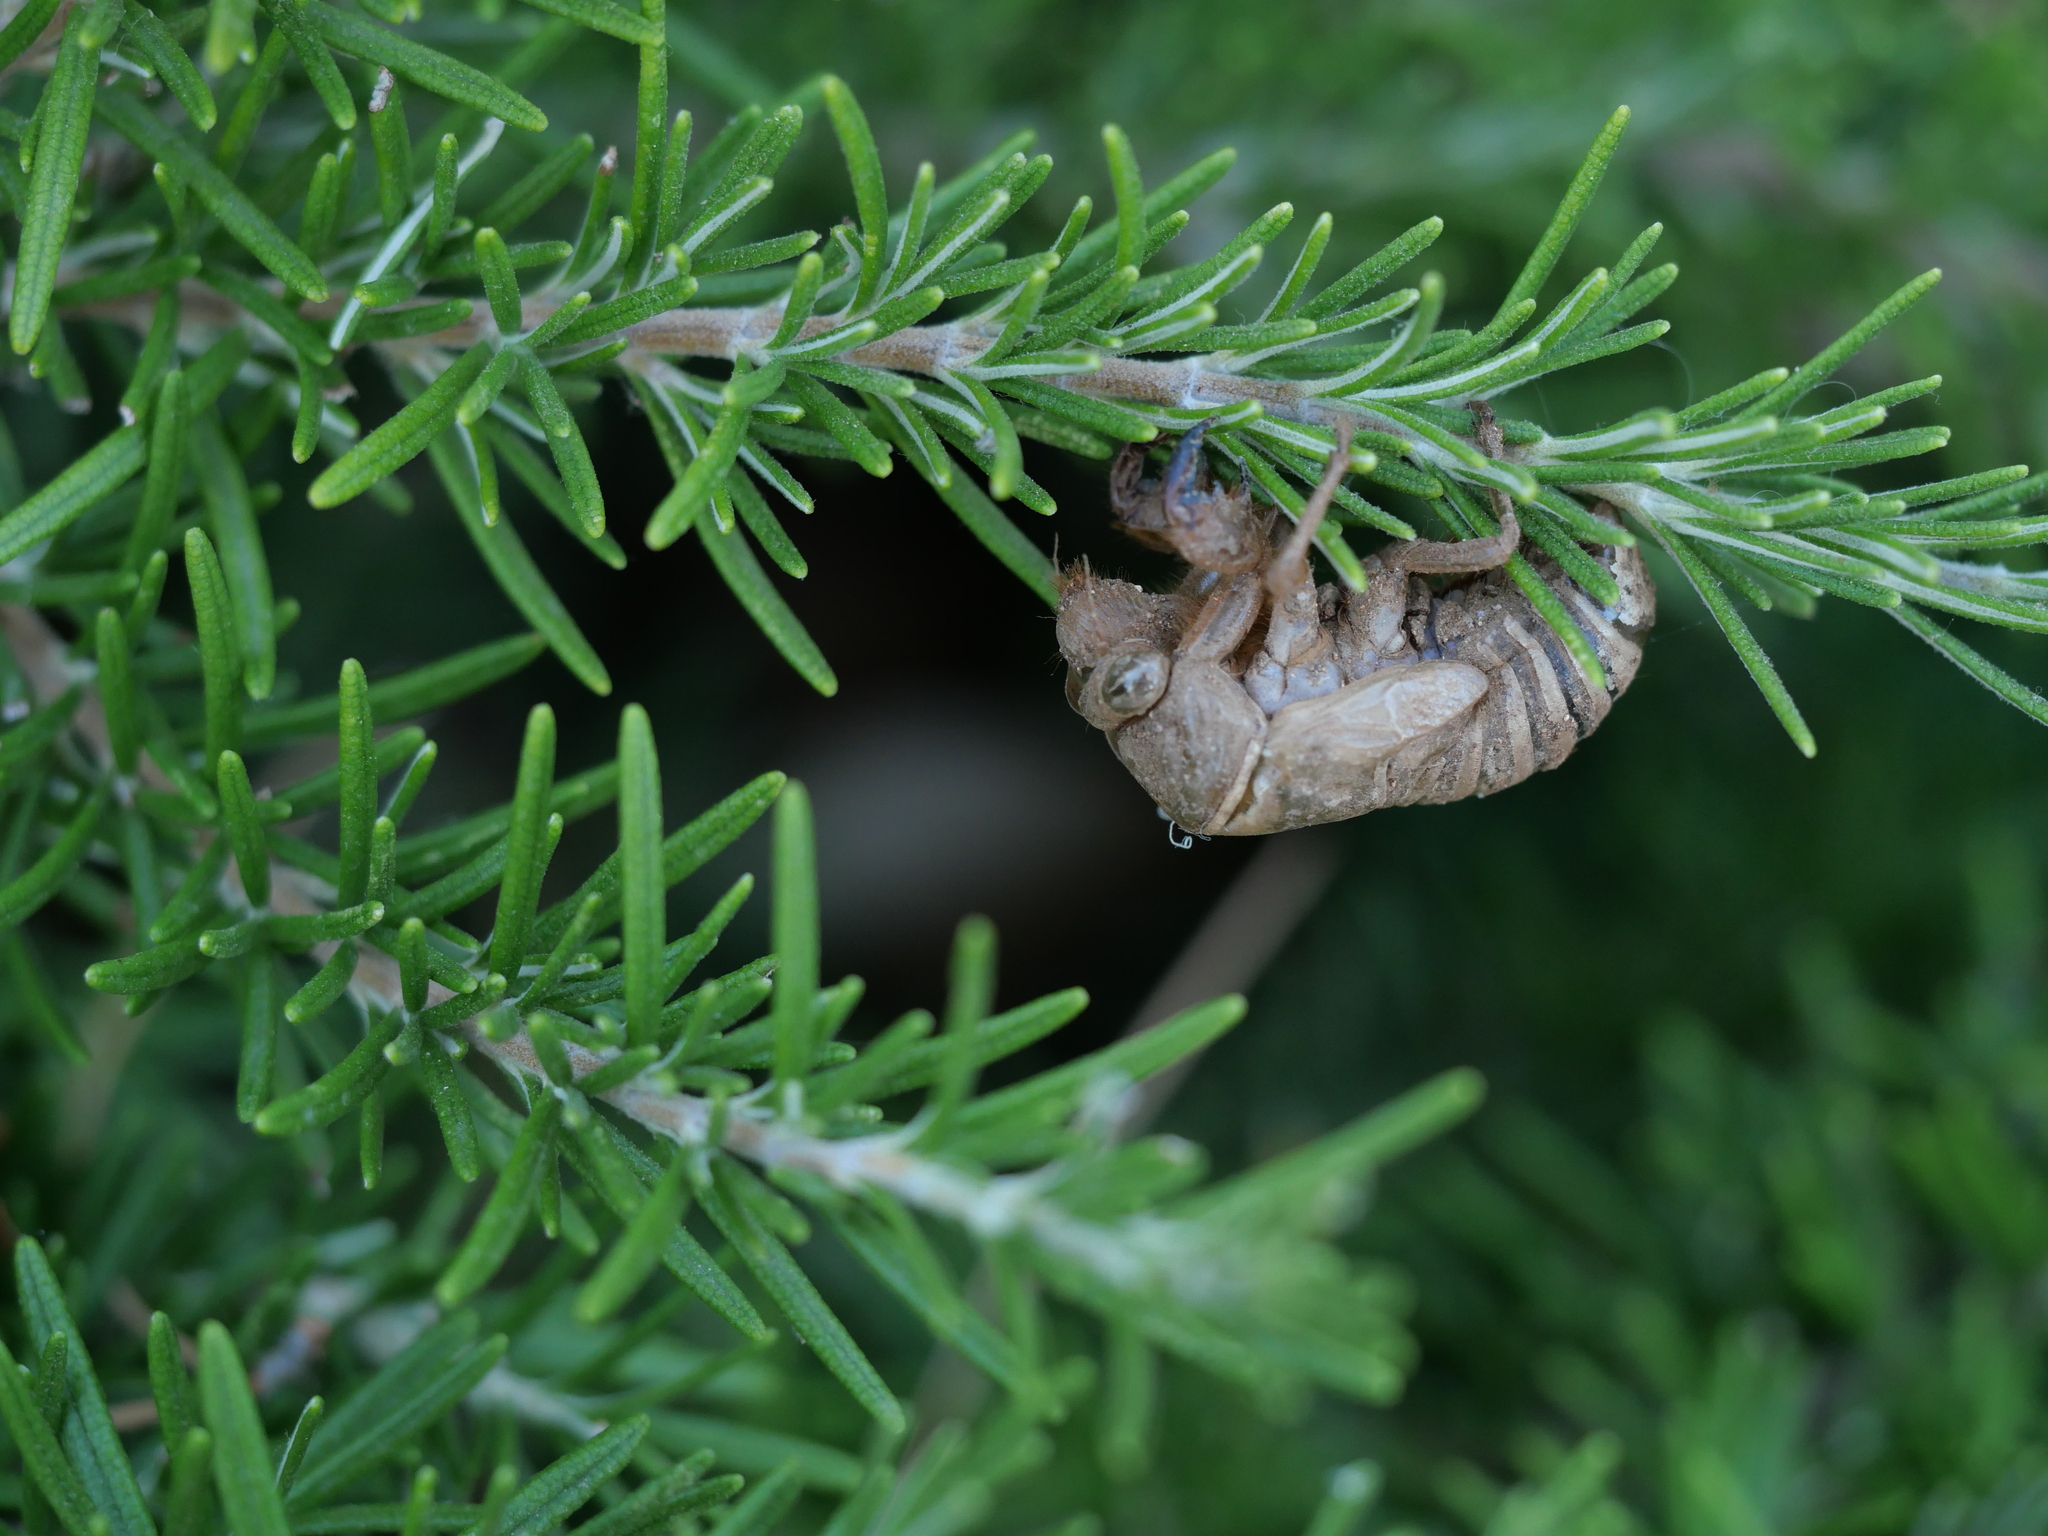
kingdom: Animalia
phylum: Arthropoda
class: Insecta
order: Hemiptera
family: Cicadidae
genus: Lyristes
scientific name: Lyristes plebejus
